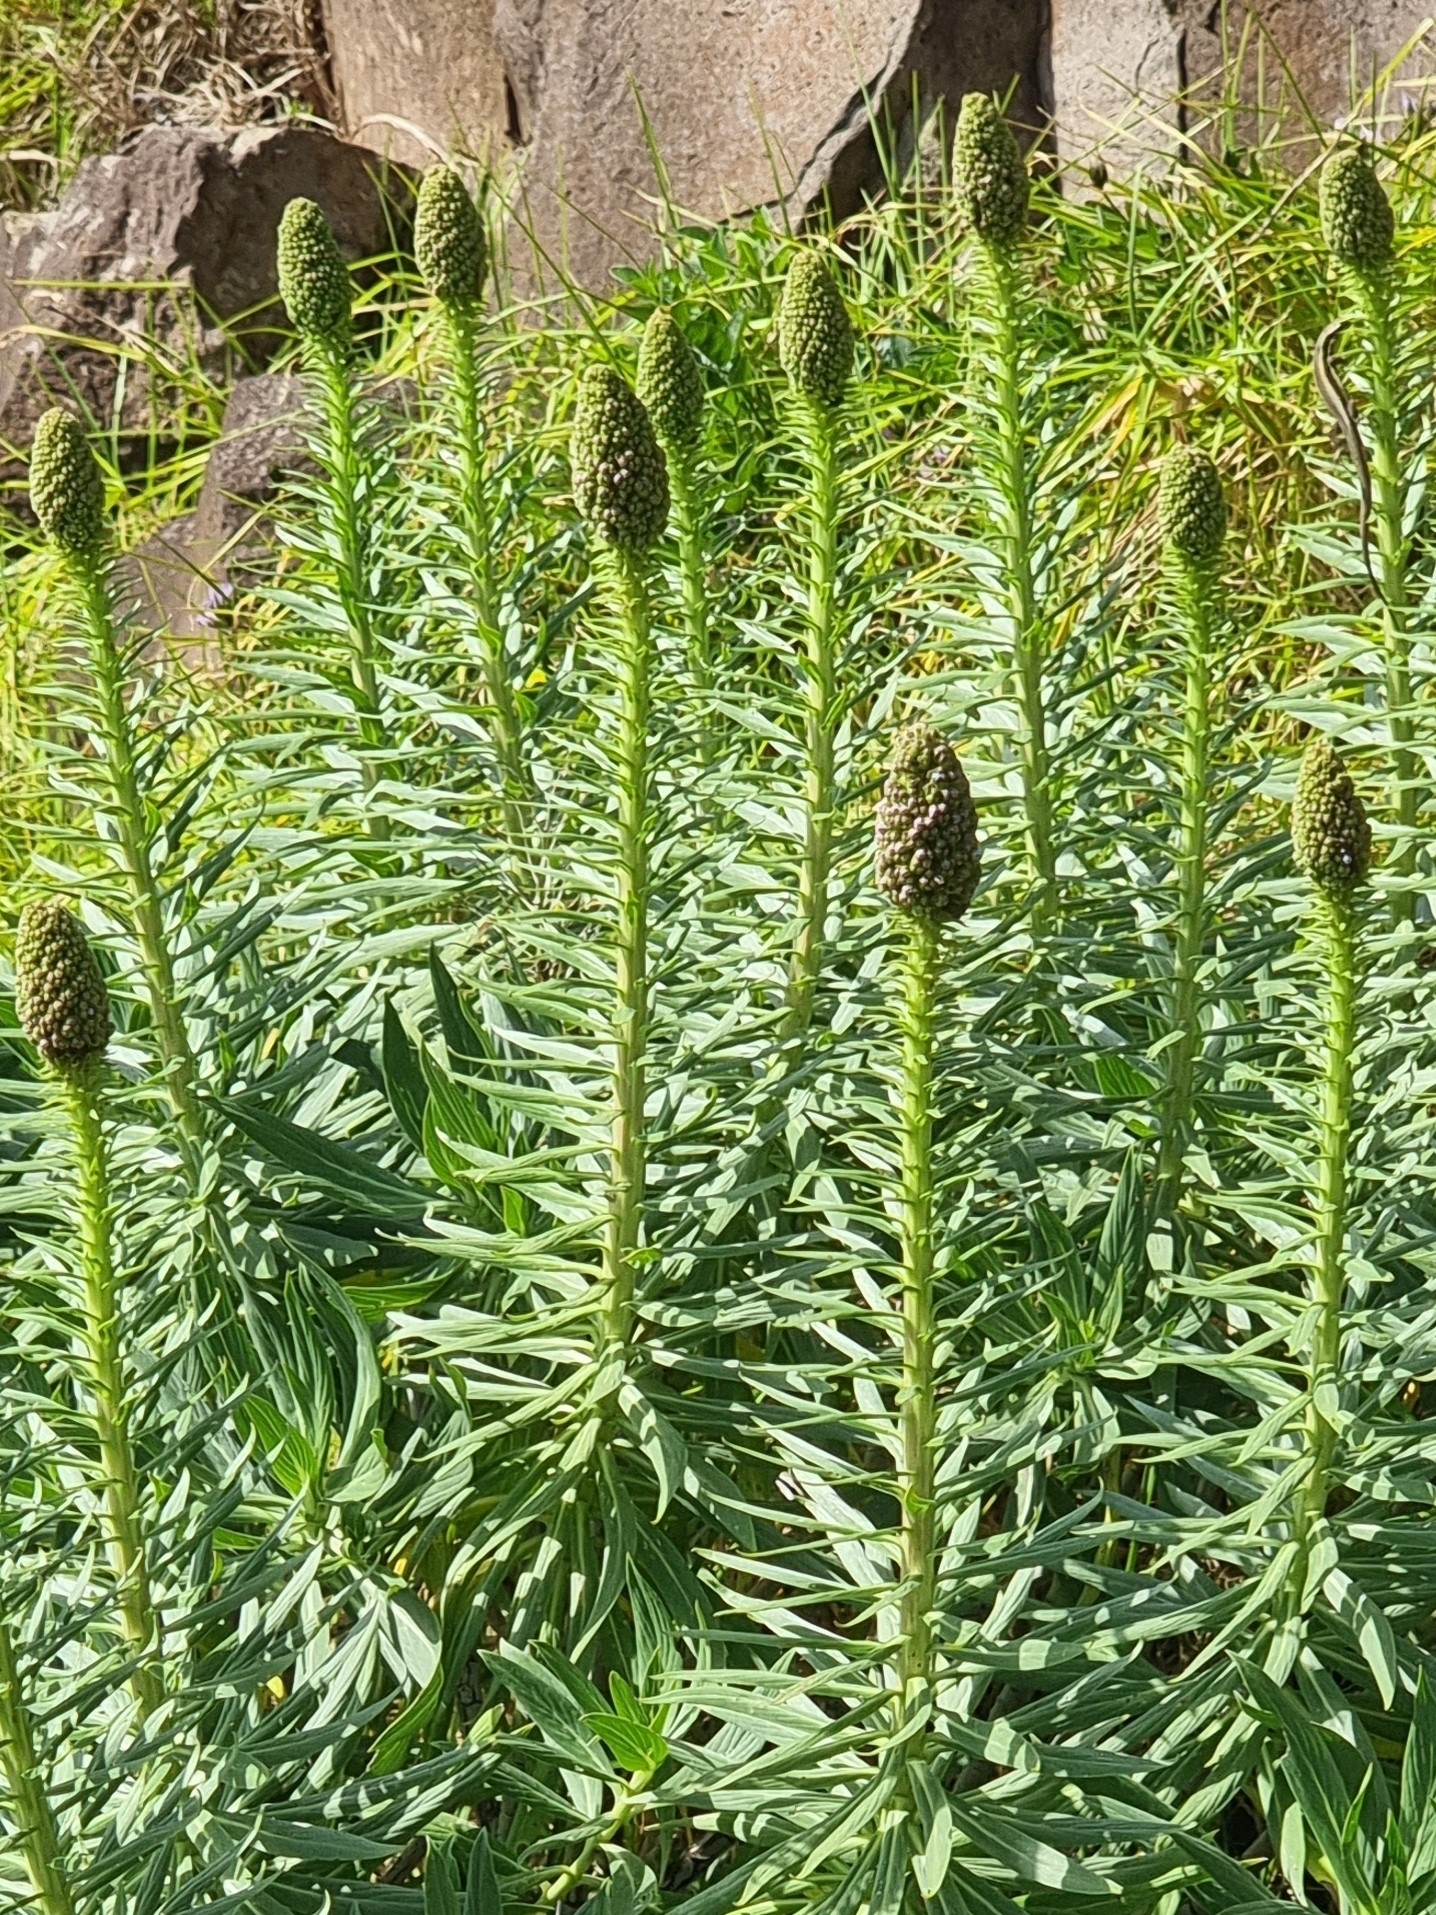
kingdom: Plantae
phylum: Tracheophyta
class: Magnoliopsida
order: Boraginales
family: Boraginaceae
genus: Echium
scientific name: Echium nervosum
